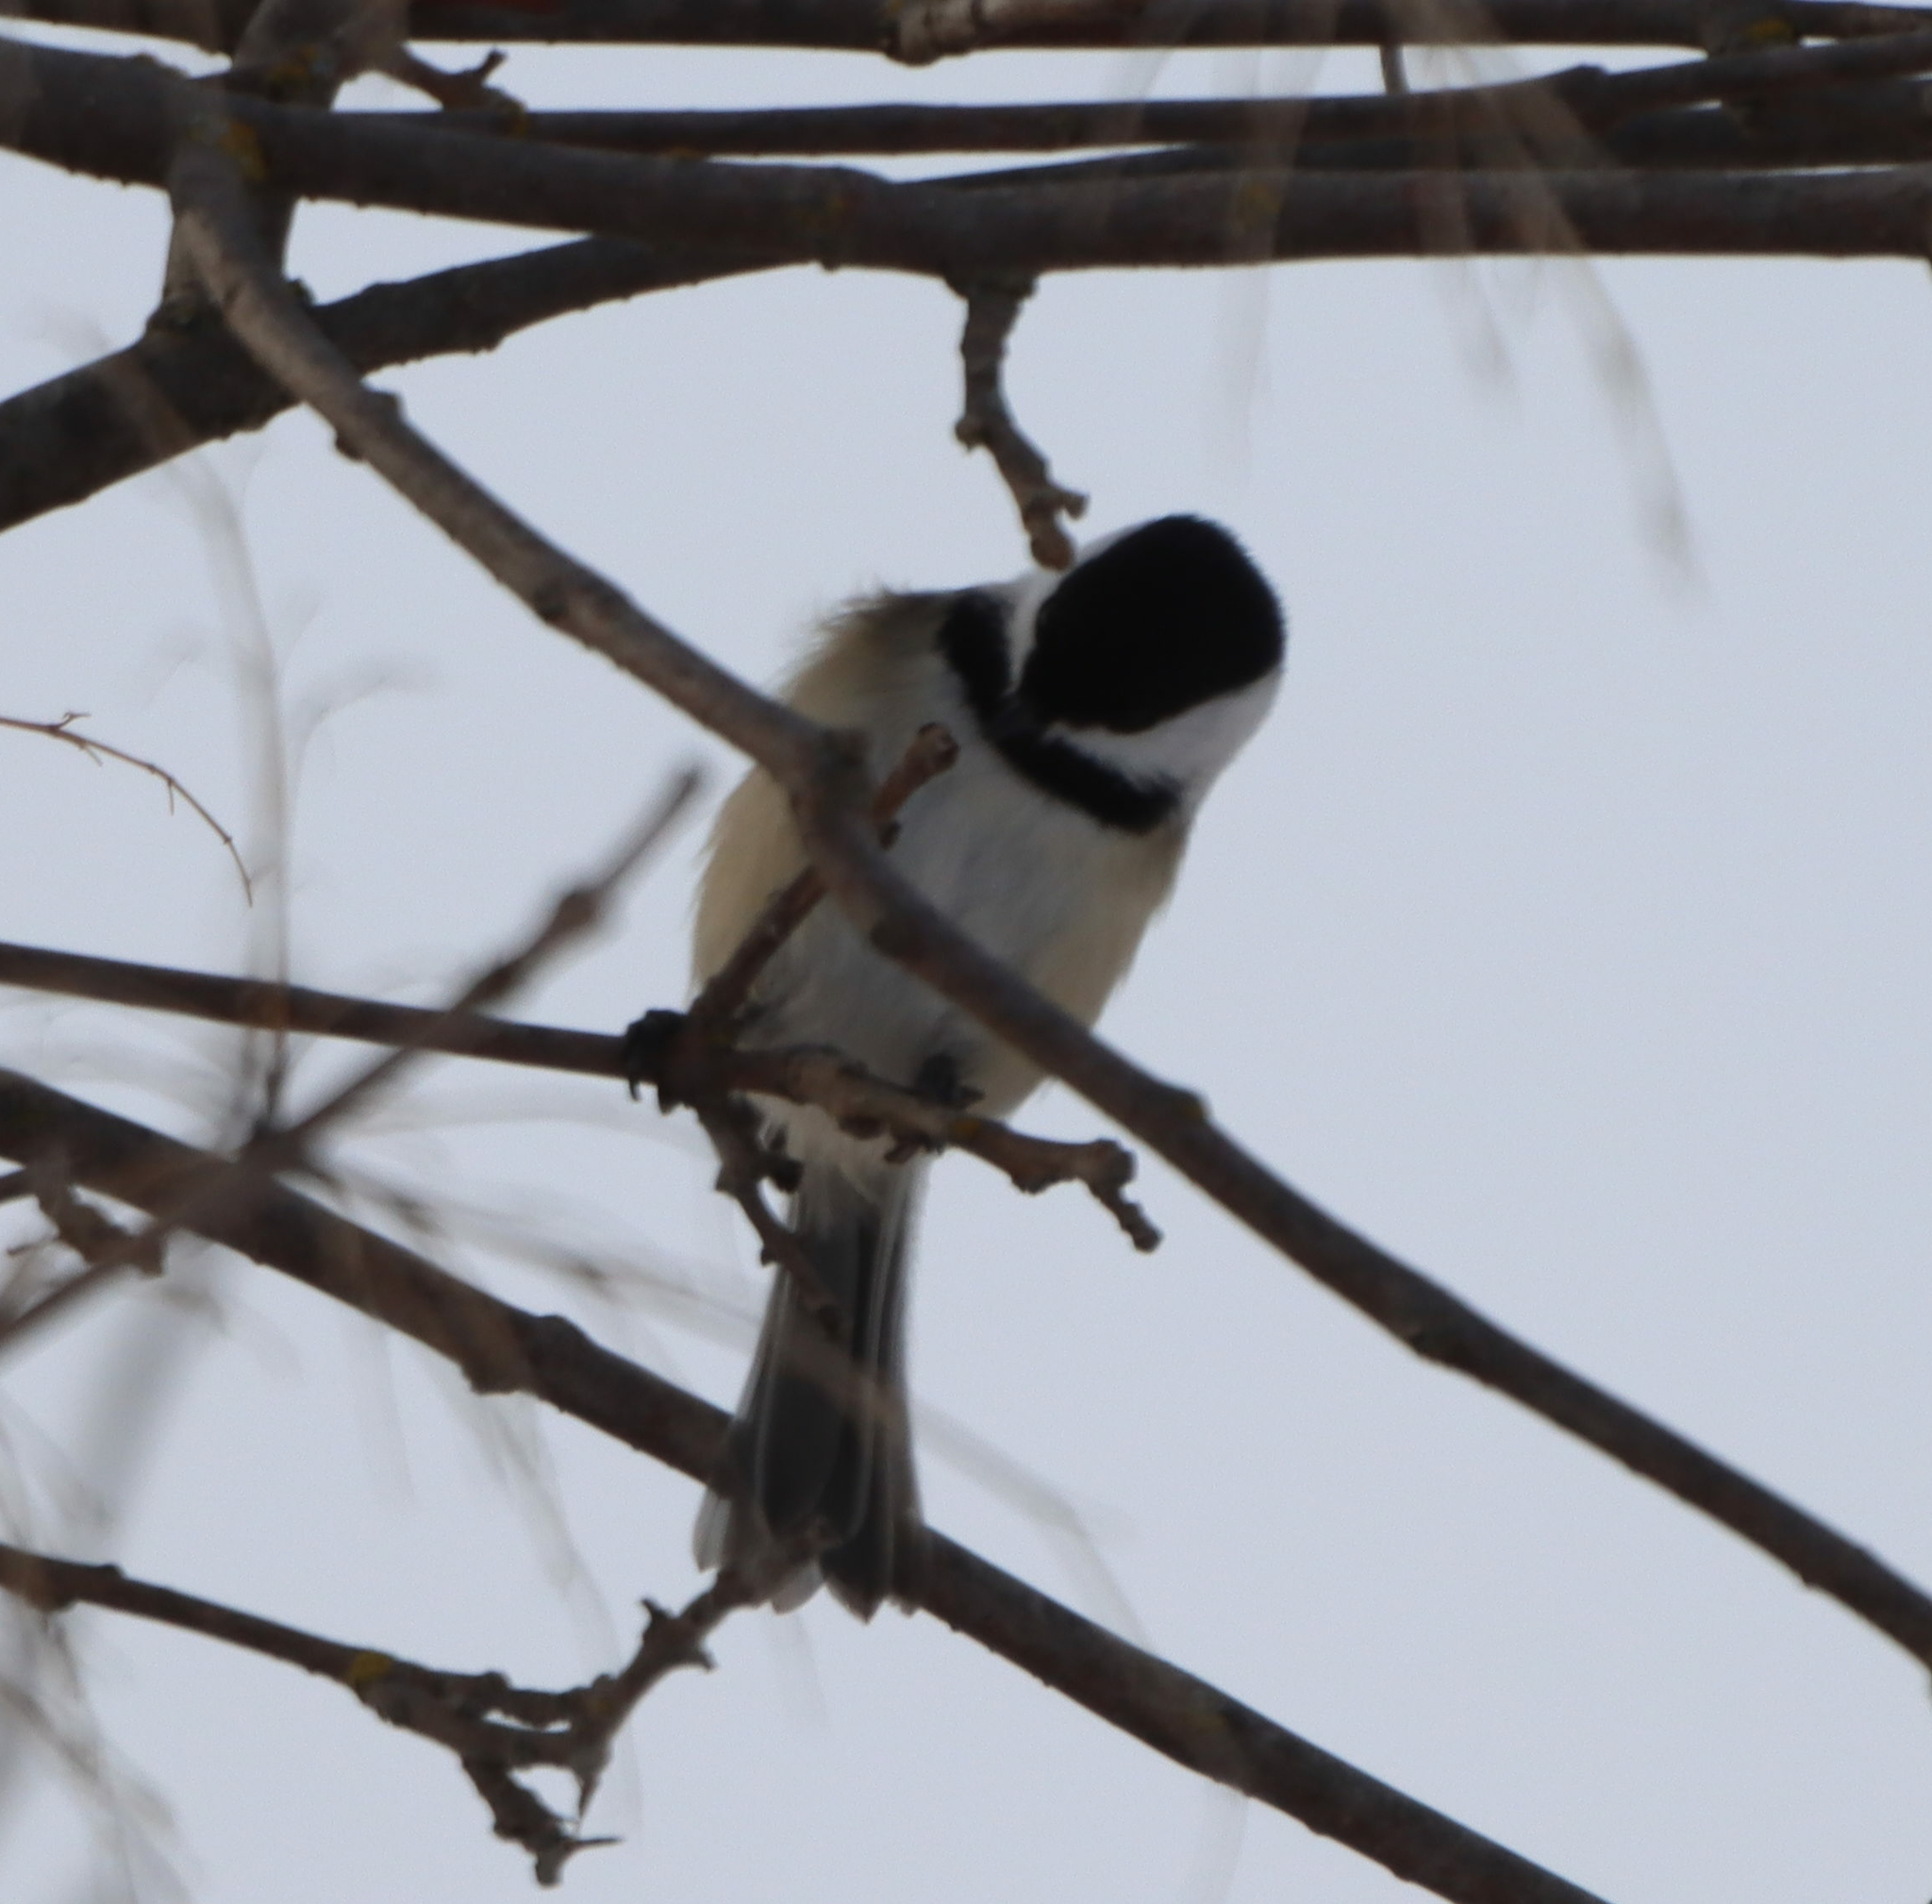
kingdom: Animalia
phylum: Chordata
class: Aves
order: Passeriformes
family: Paridae
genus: Poecile
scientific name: Poecile atricapillus
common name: Black-capped chickadee
